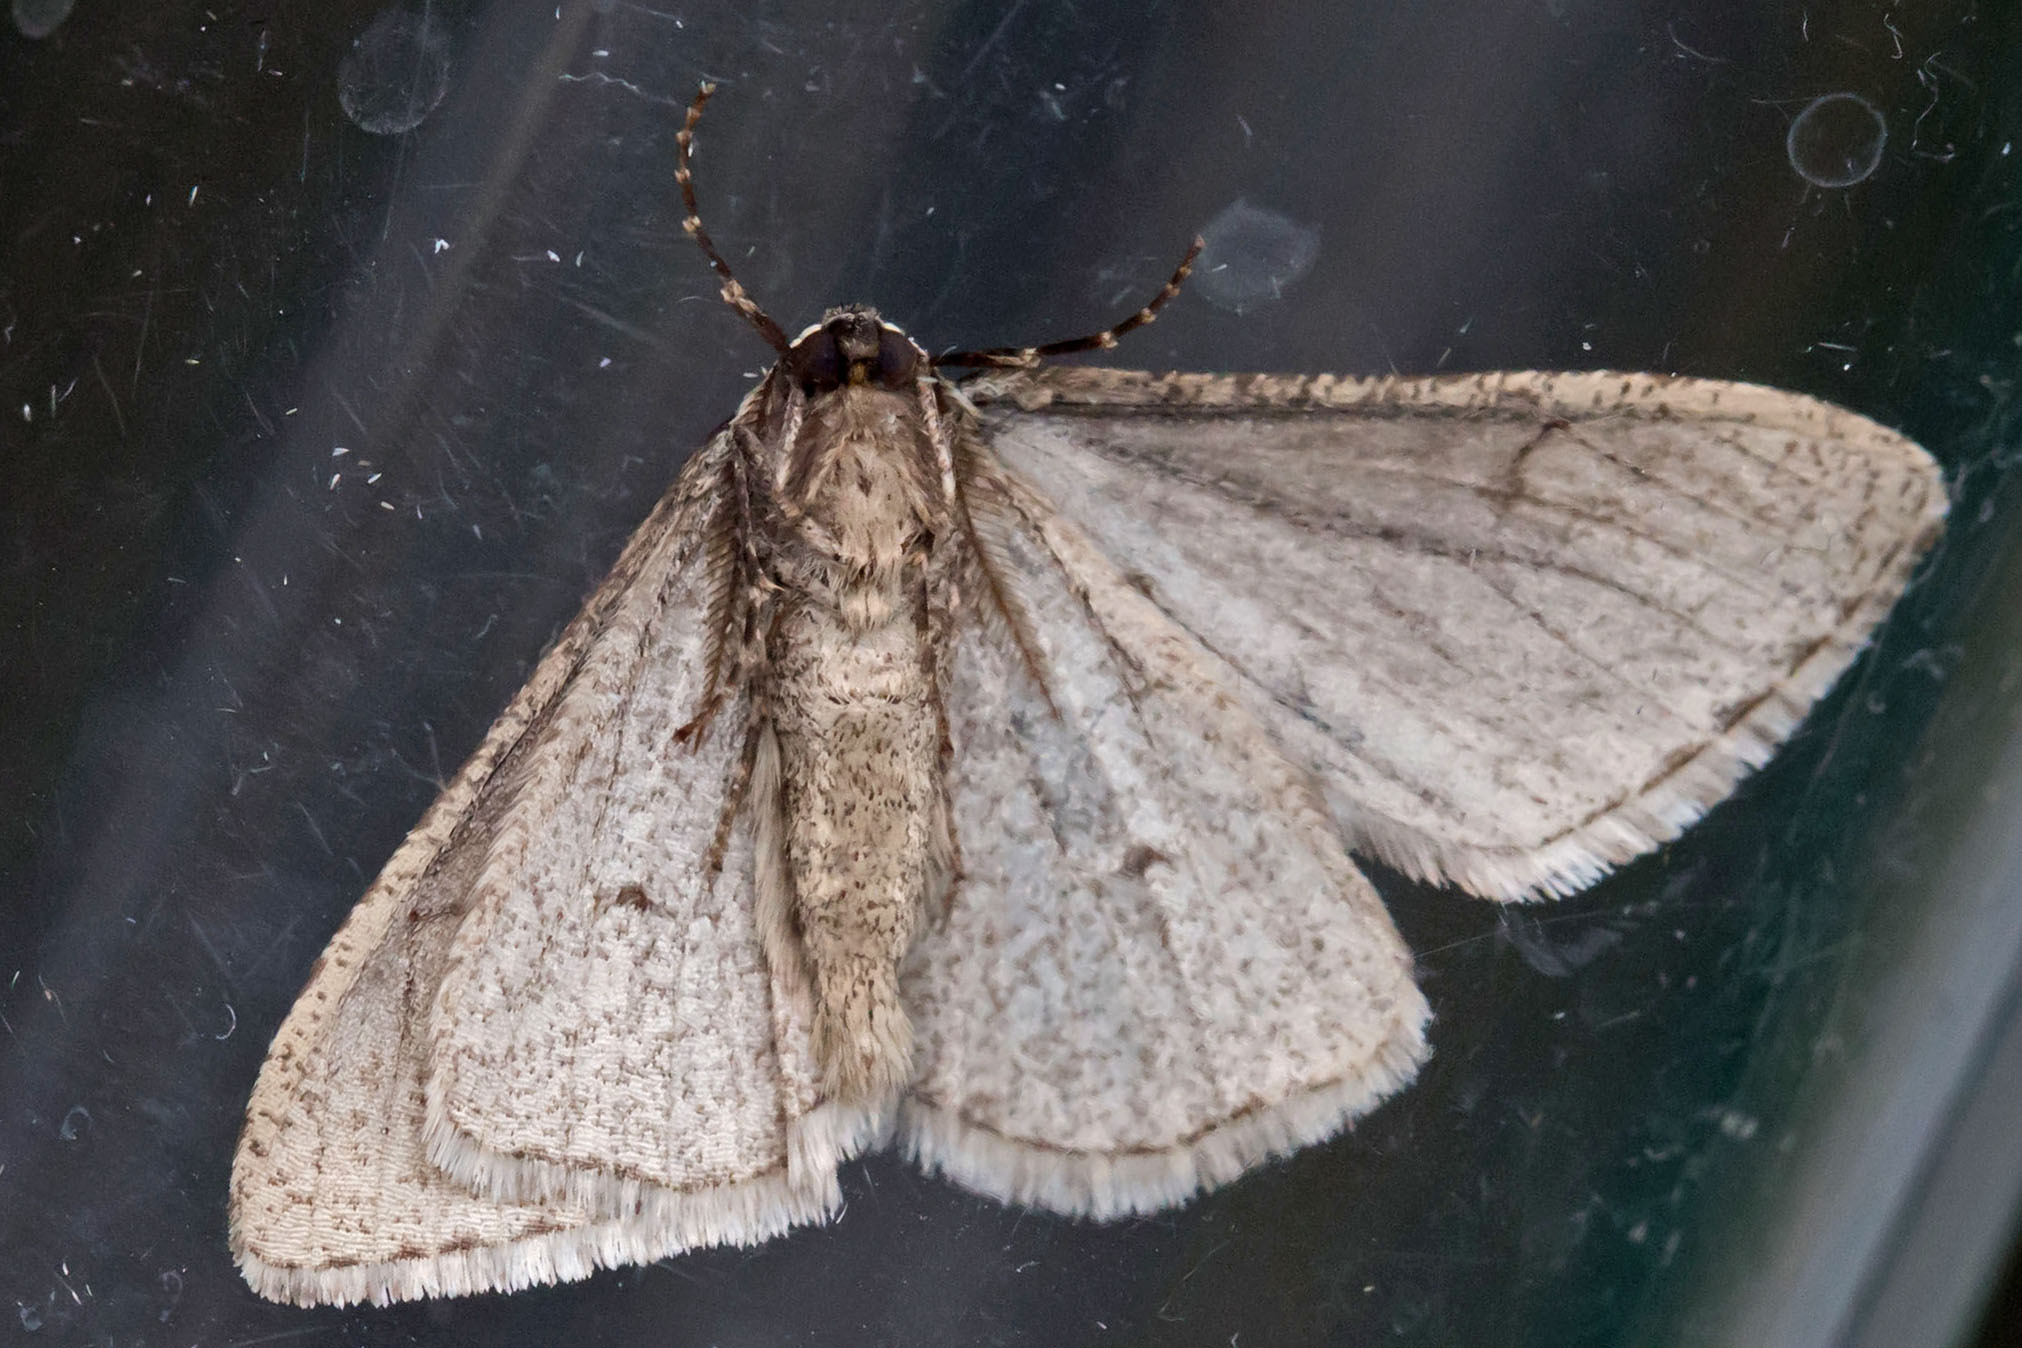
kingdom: Animalia
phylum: Arthropoda
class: Insecta
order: Lepidoptera
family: Geometridae
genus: Phigalia
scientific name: Phigalia strigataria
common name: Small phigalia
